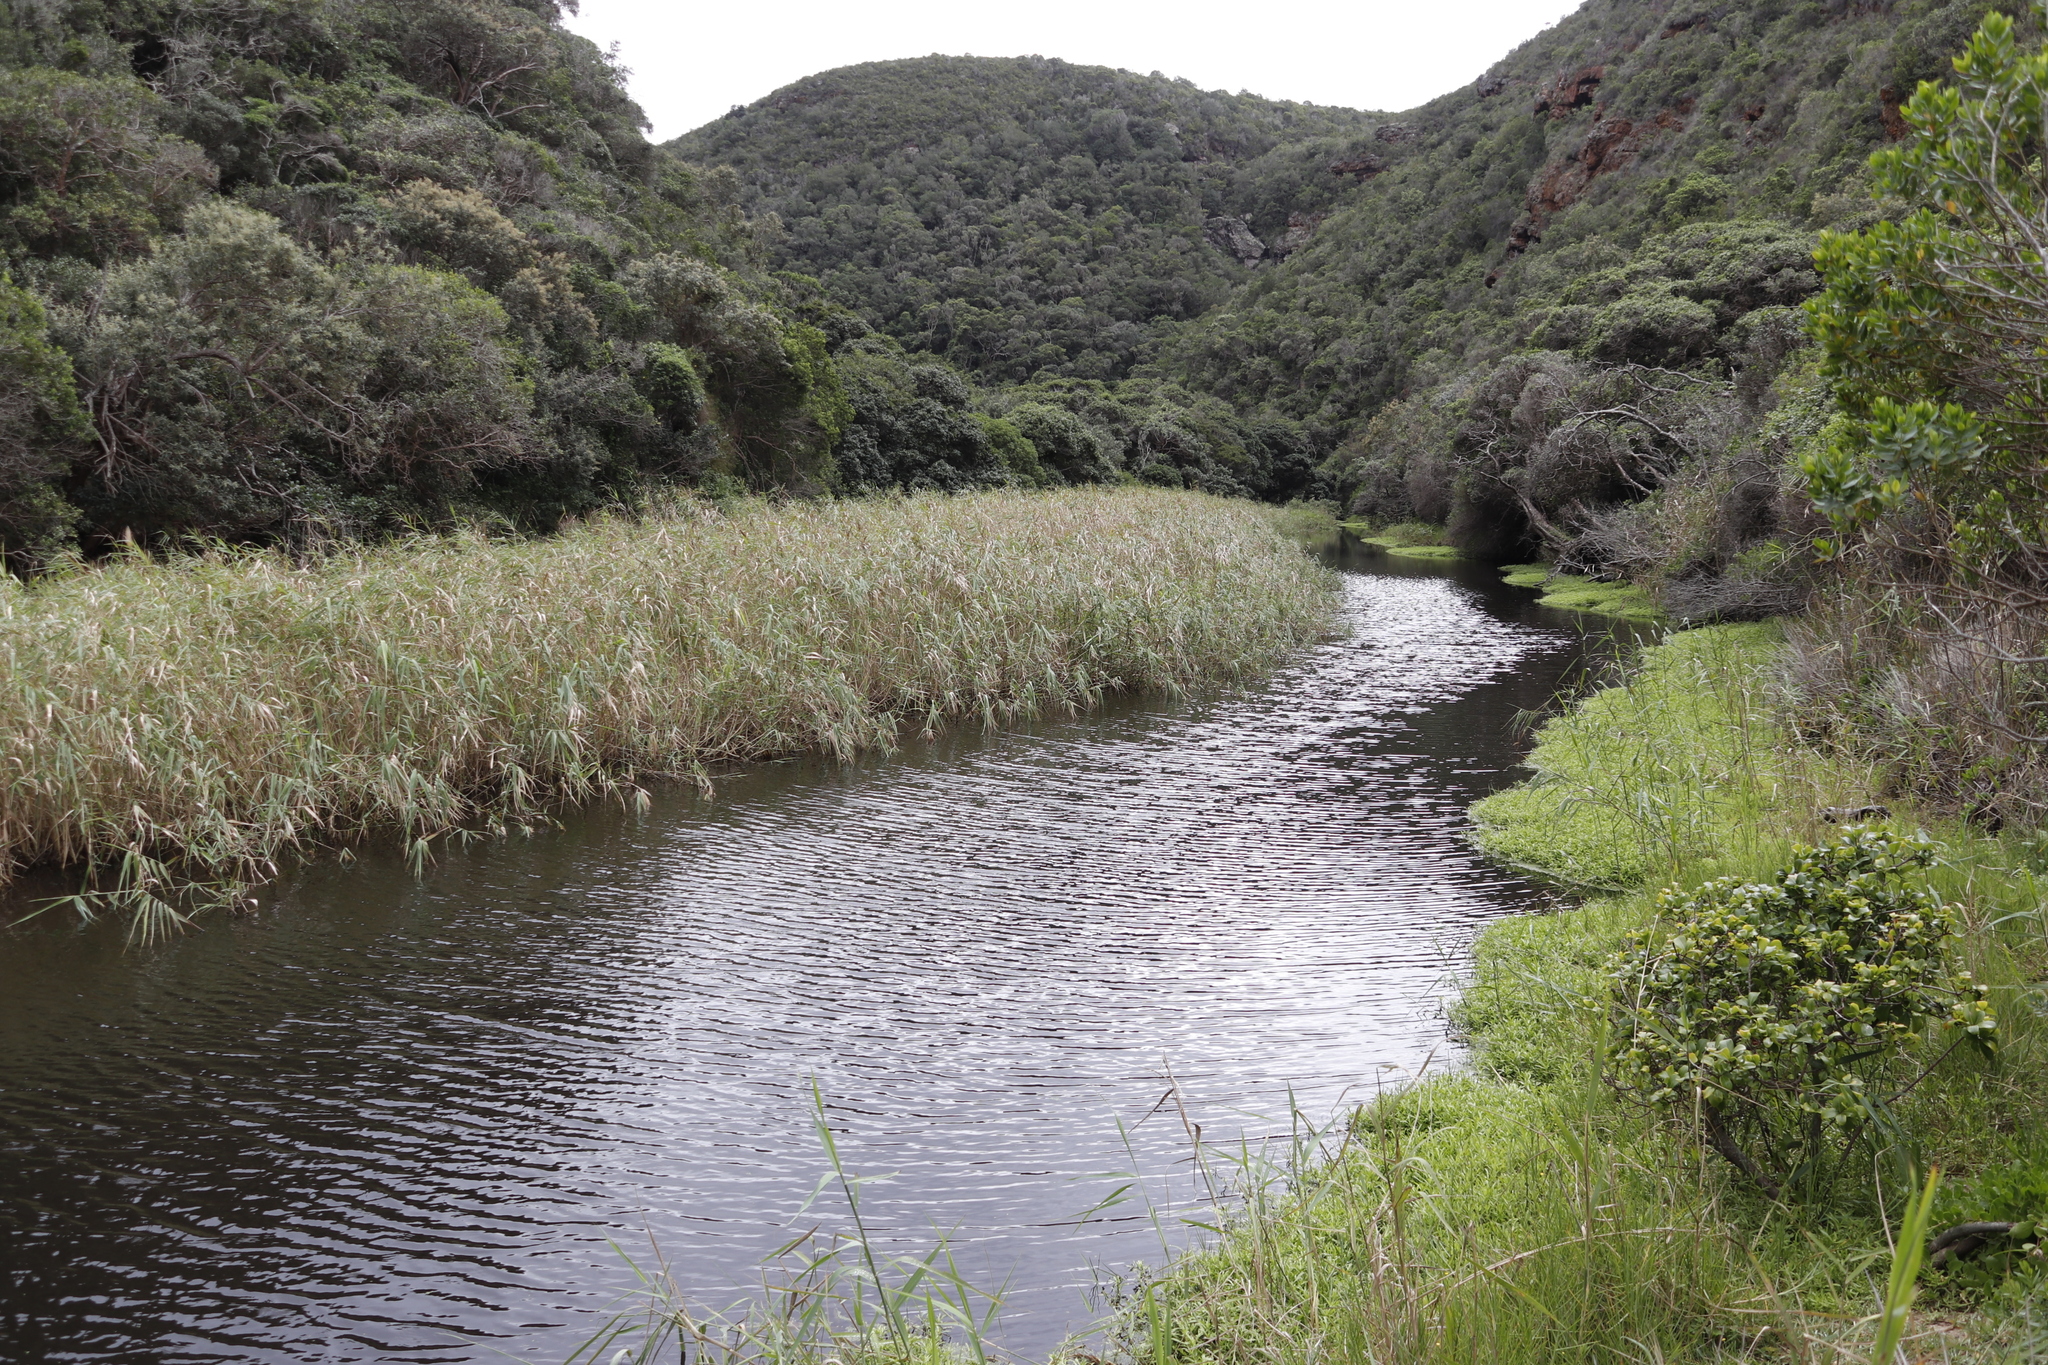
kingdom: Plantae
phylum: Tracheophyta
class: Liliopsida
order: Poales
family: Poaceae
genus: Phragmites
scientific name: Phragmites australis
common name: Common reed
